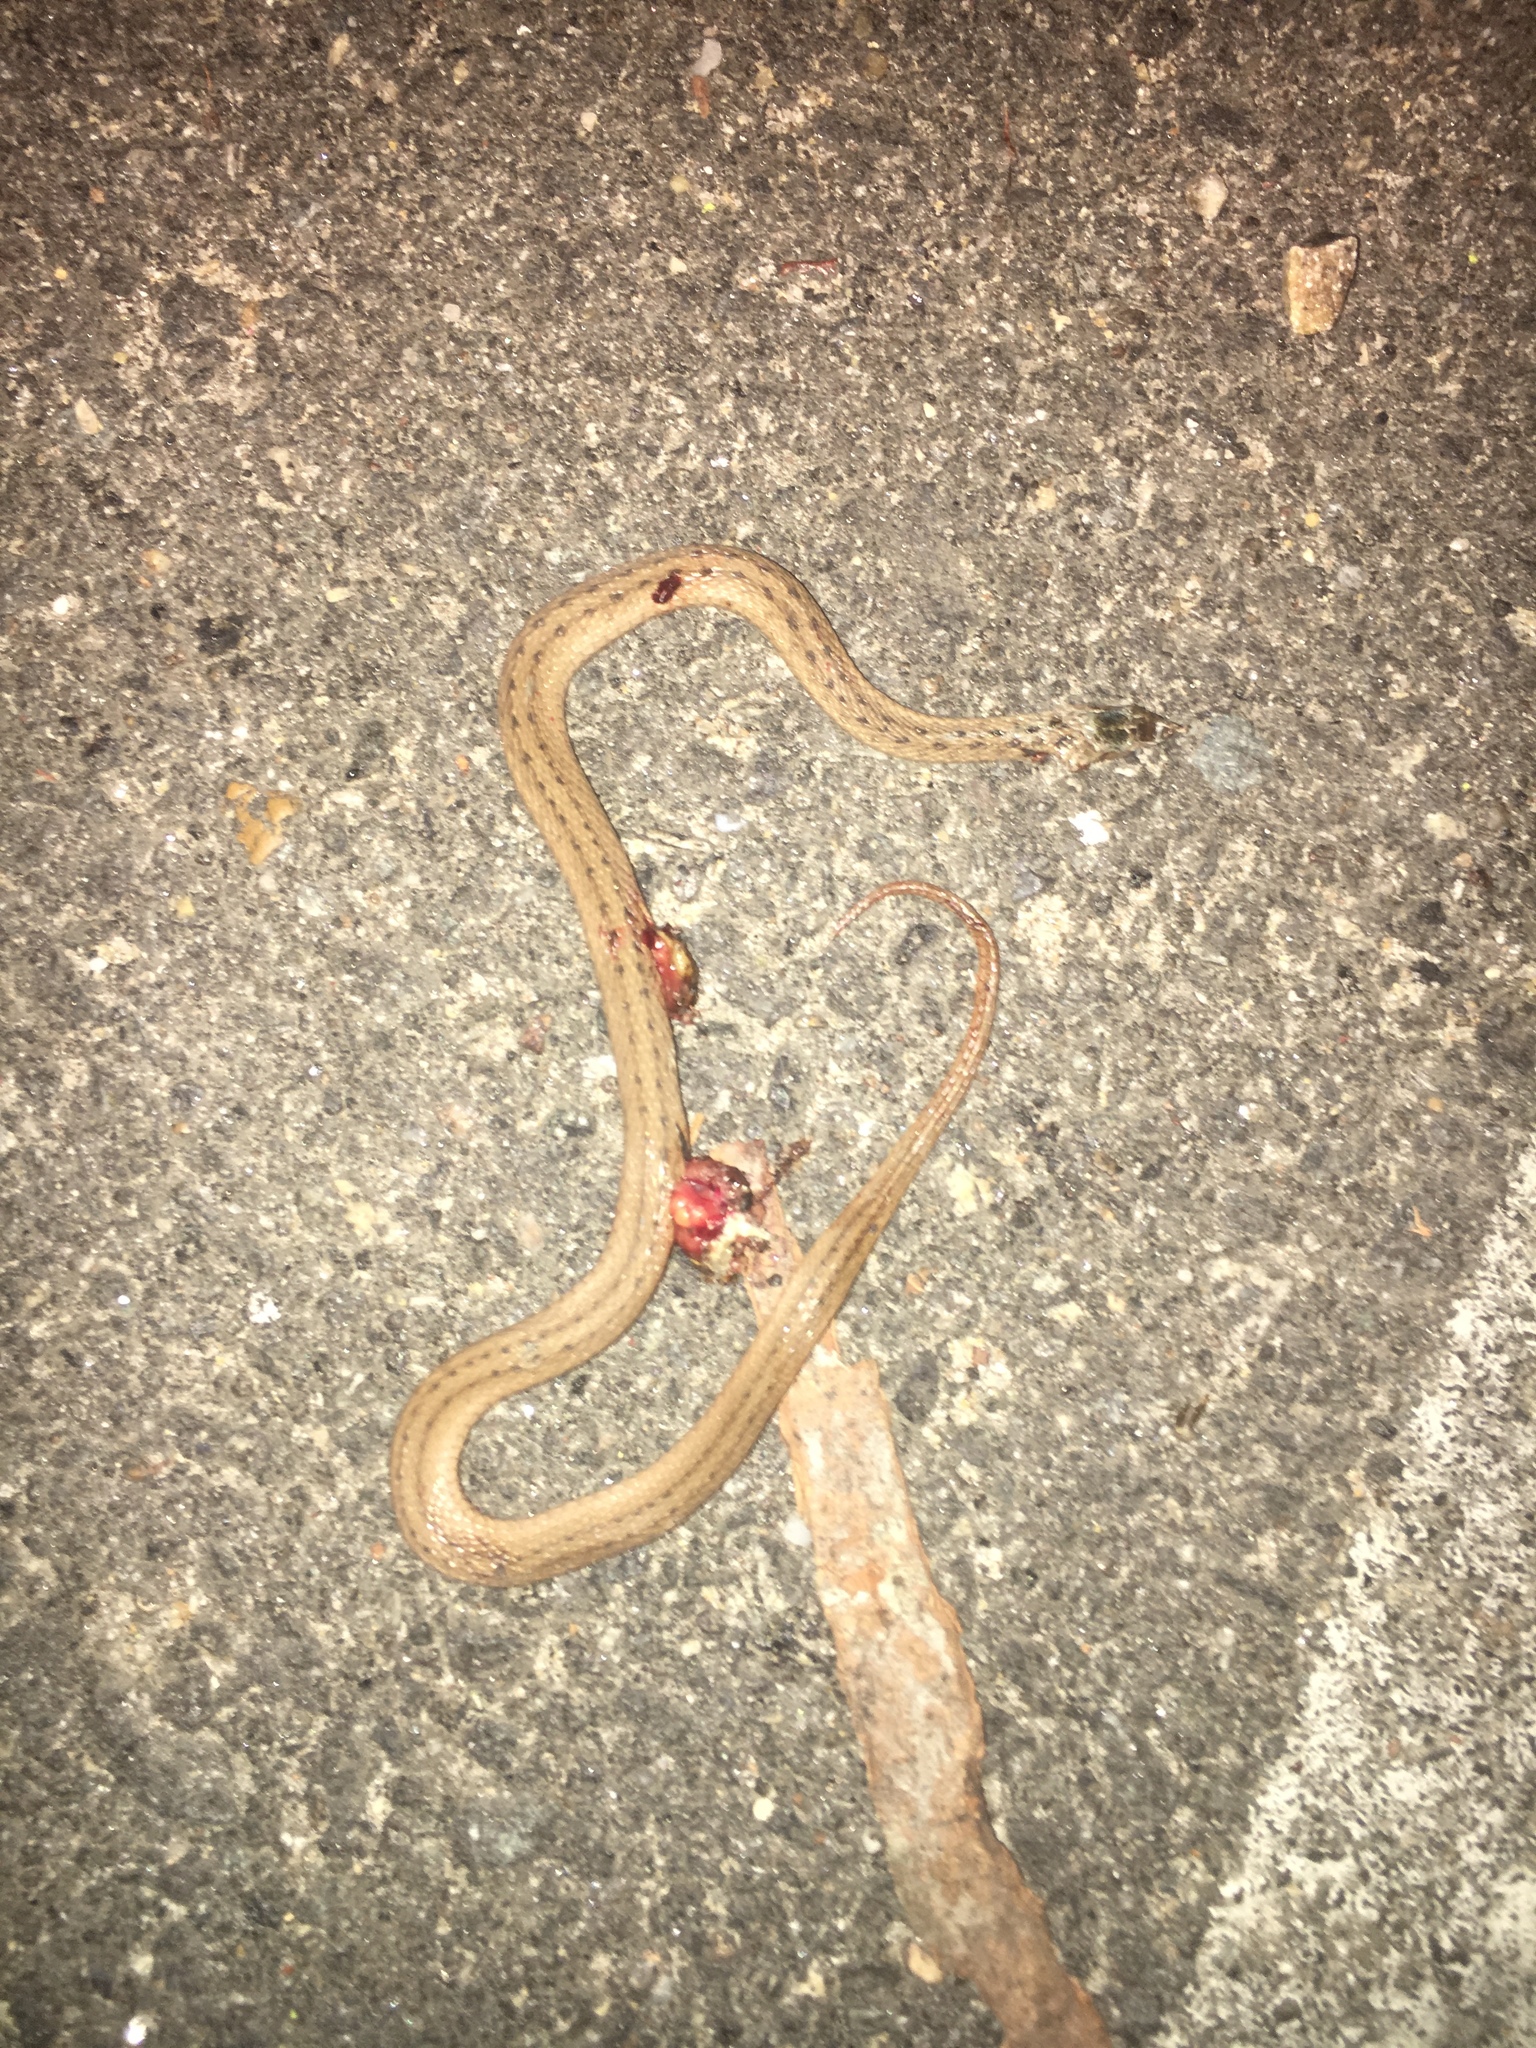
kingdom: Animalia
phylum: Chordata
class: Squamata
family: Colubridae
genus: Storeria
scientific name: Storeria dekayi
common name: (dekay’s) brown snake
